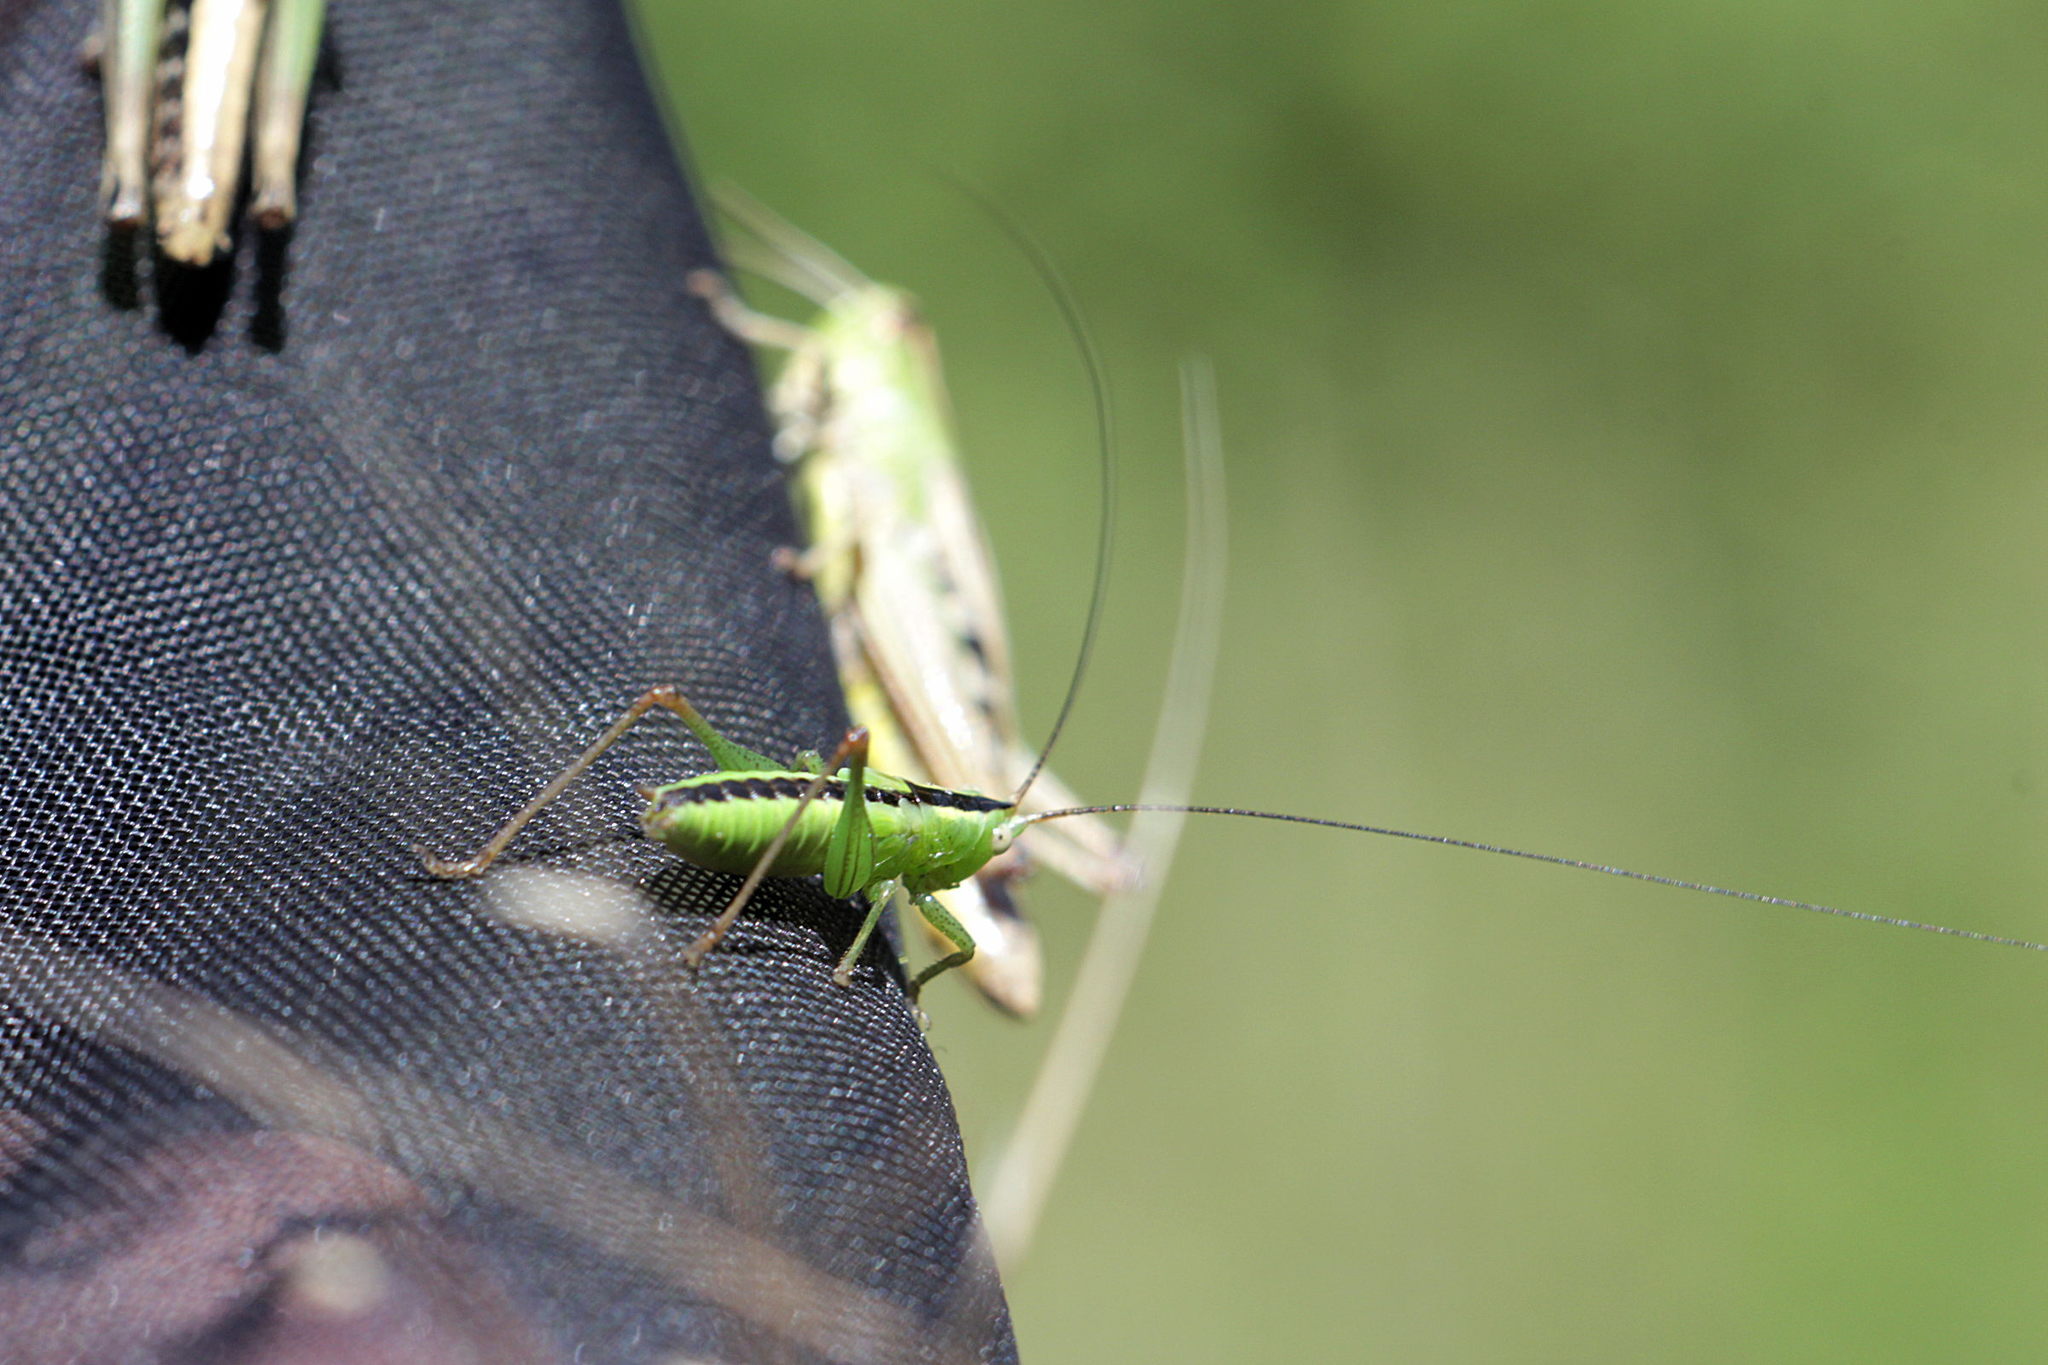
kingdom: Animalia
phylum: Arthropoda
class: Insecta
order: Orthoptera
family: Tettigoniidae
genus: Conocephalus
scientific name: Conocephalus fuscus
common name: Long-winged conehead
